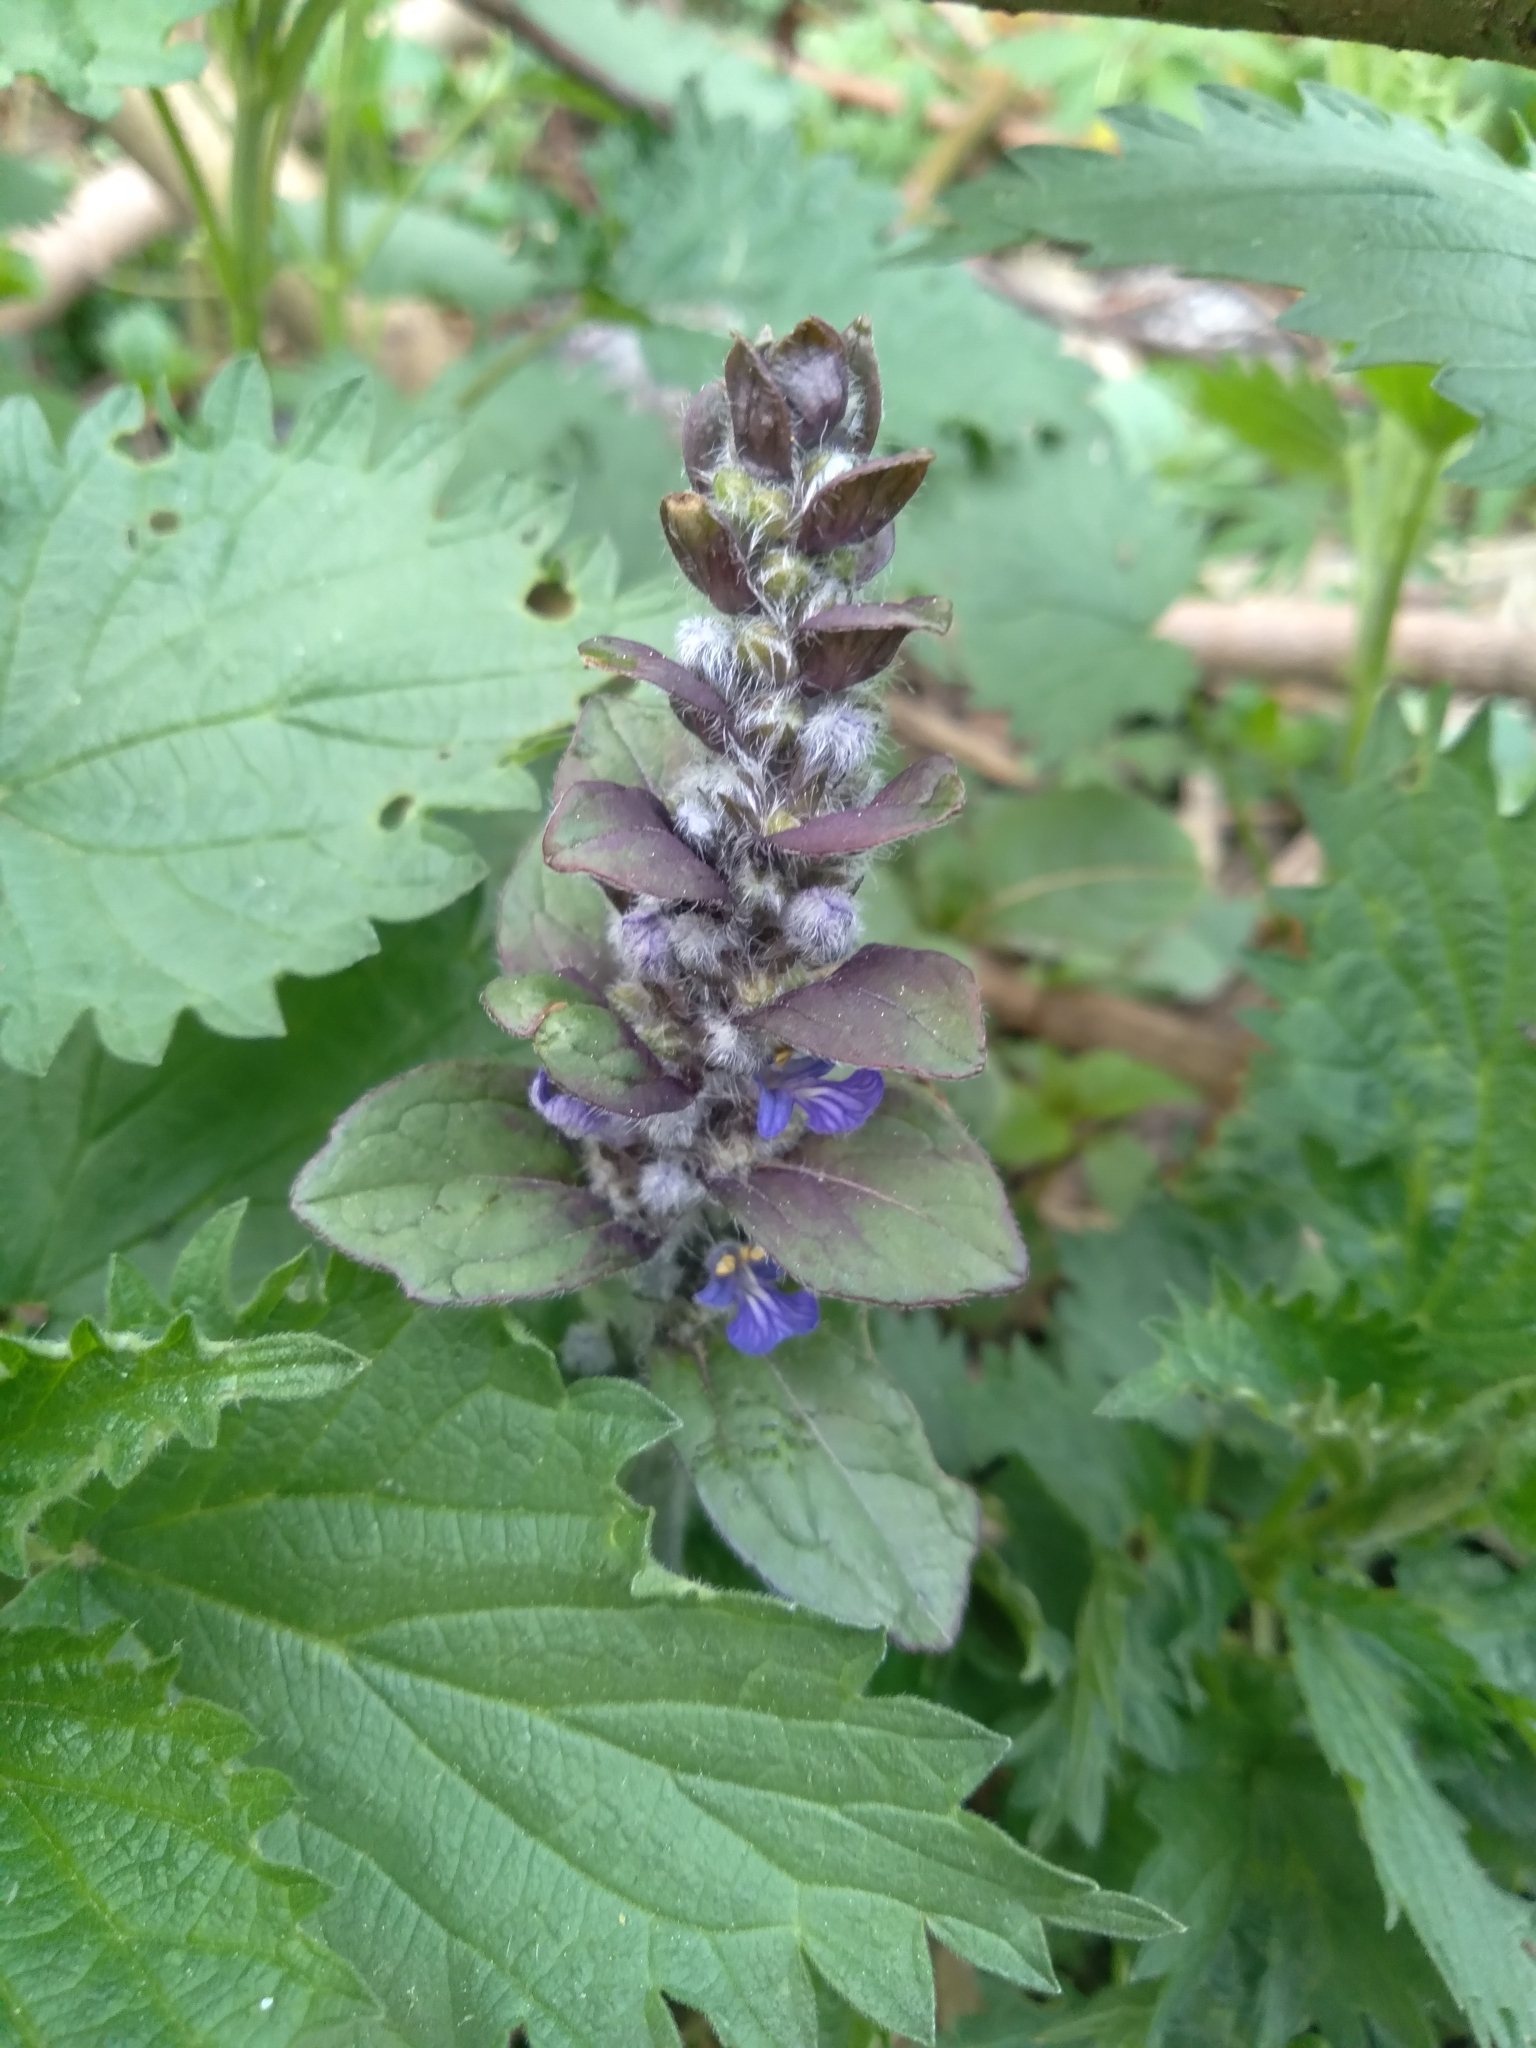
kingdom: Plantae
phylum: Tracheophyta
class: Magnoliopsida
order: Lamiales
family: Lamiaceae
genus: Ajuga
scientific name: Ajuga reptans
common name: Bugle
